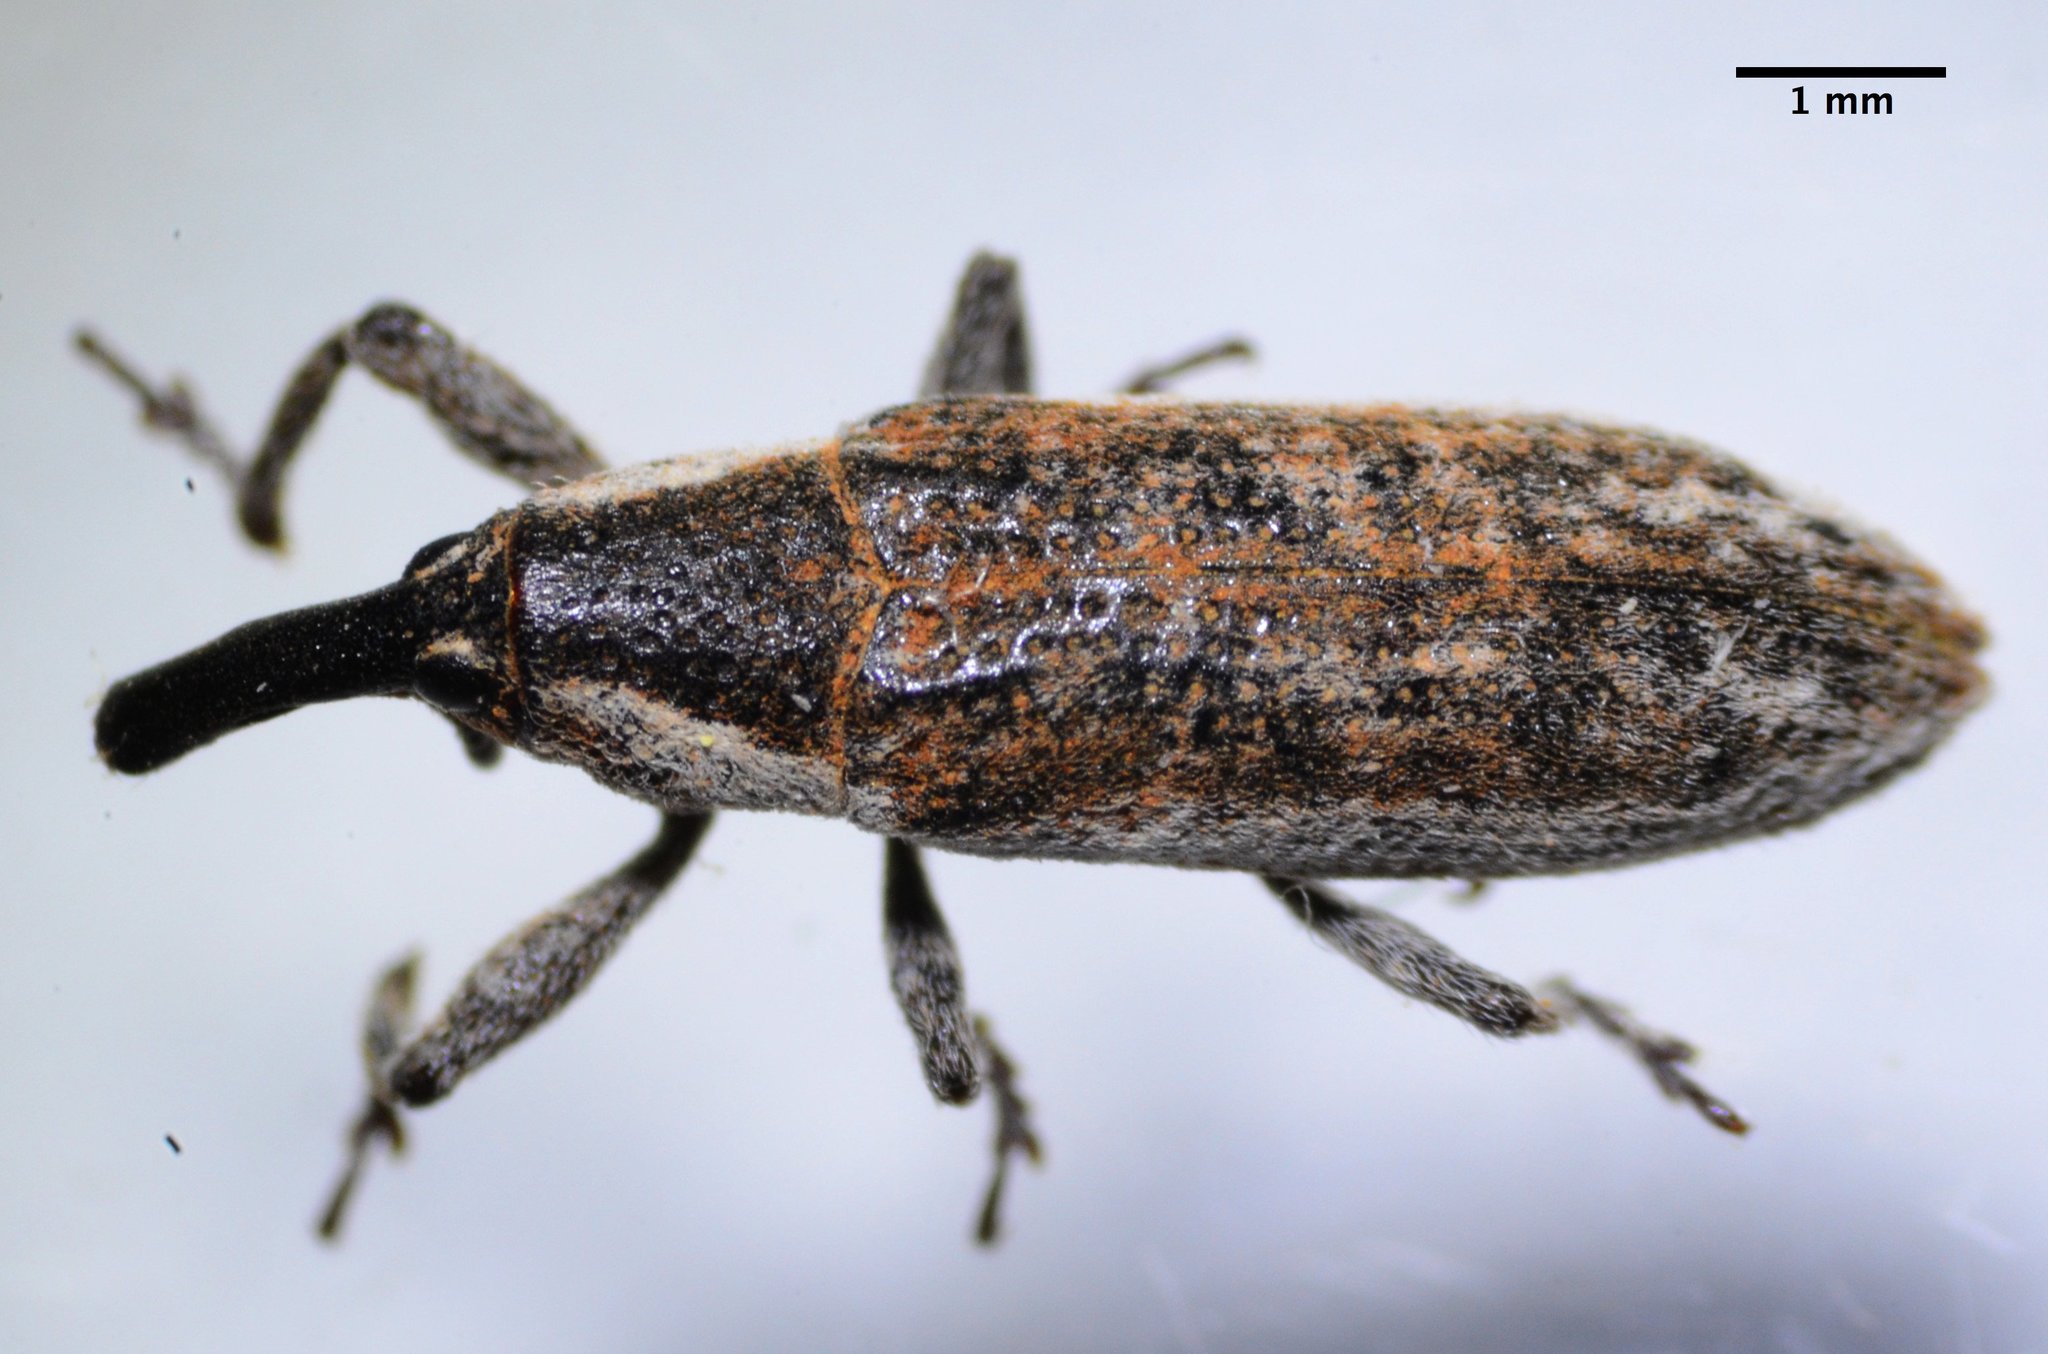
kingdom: Animalia
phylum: Arthropoda
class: Insecta
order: Coleoptera
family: Curculionidae
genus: Lixus
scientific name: Lixus perforatus
